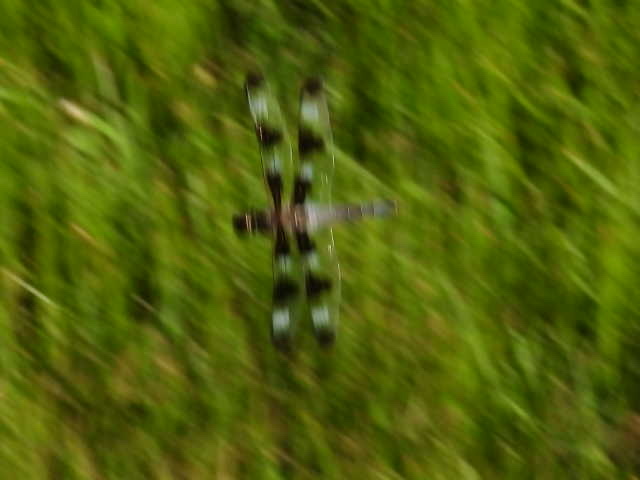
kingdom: Animalia
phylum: Arthropoda
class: Insecta
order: Odonata
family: Libellulidae
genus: Libellula
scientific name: Libellula pulchella
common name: Twelve-spotted skimmer
